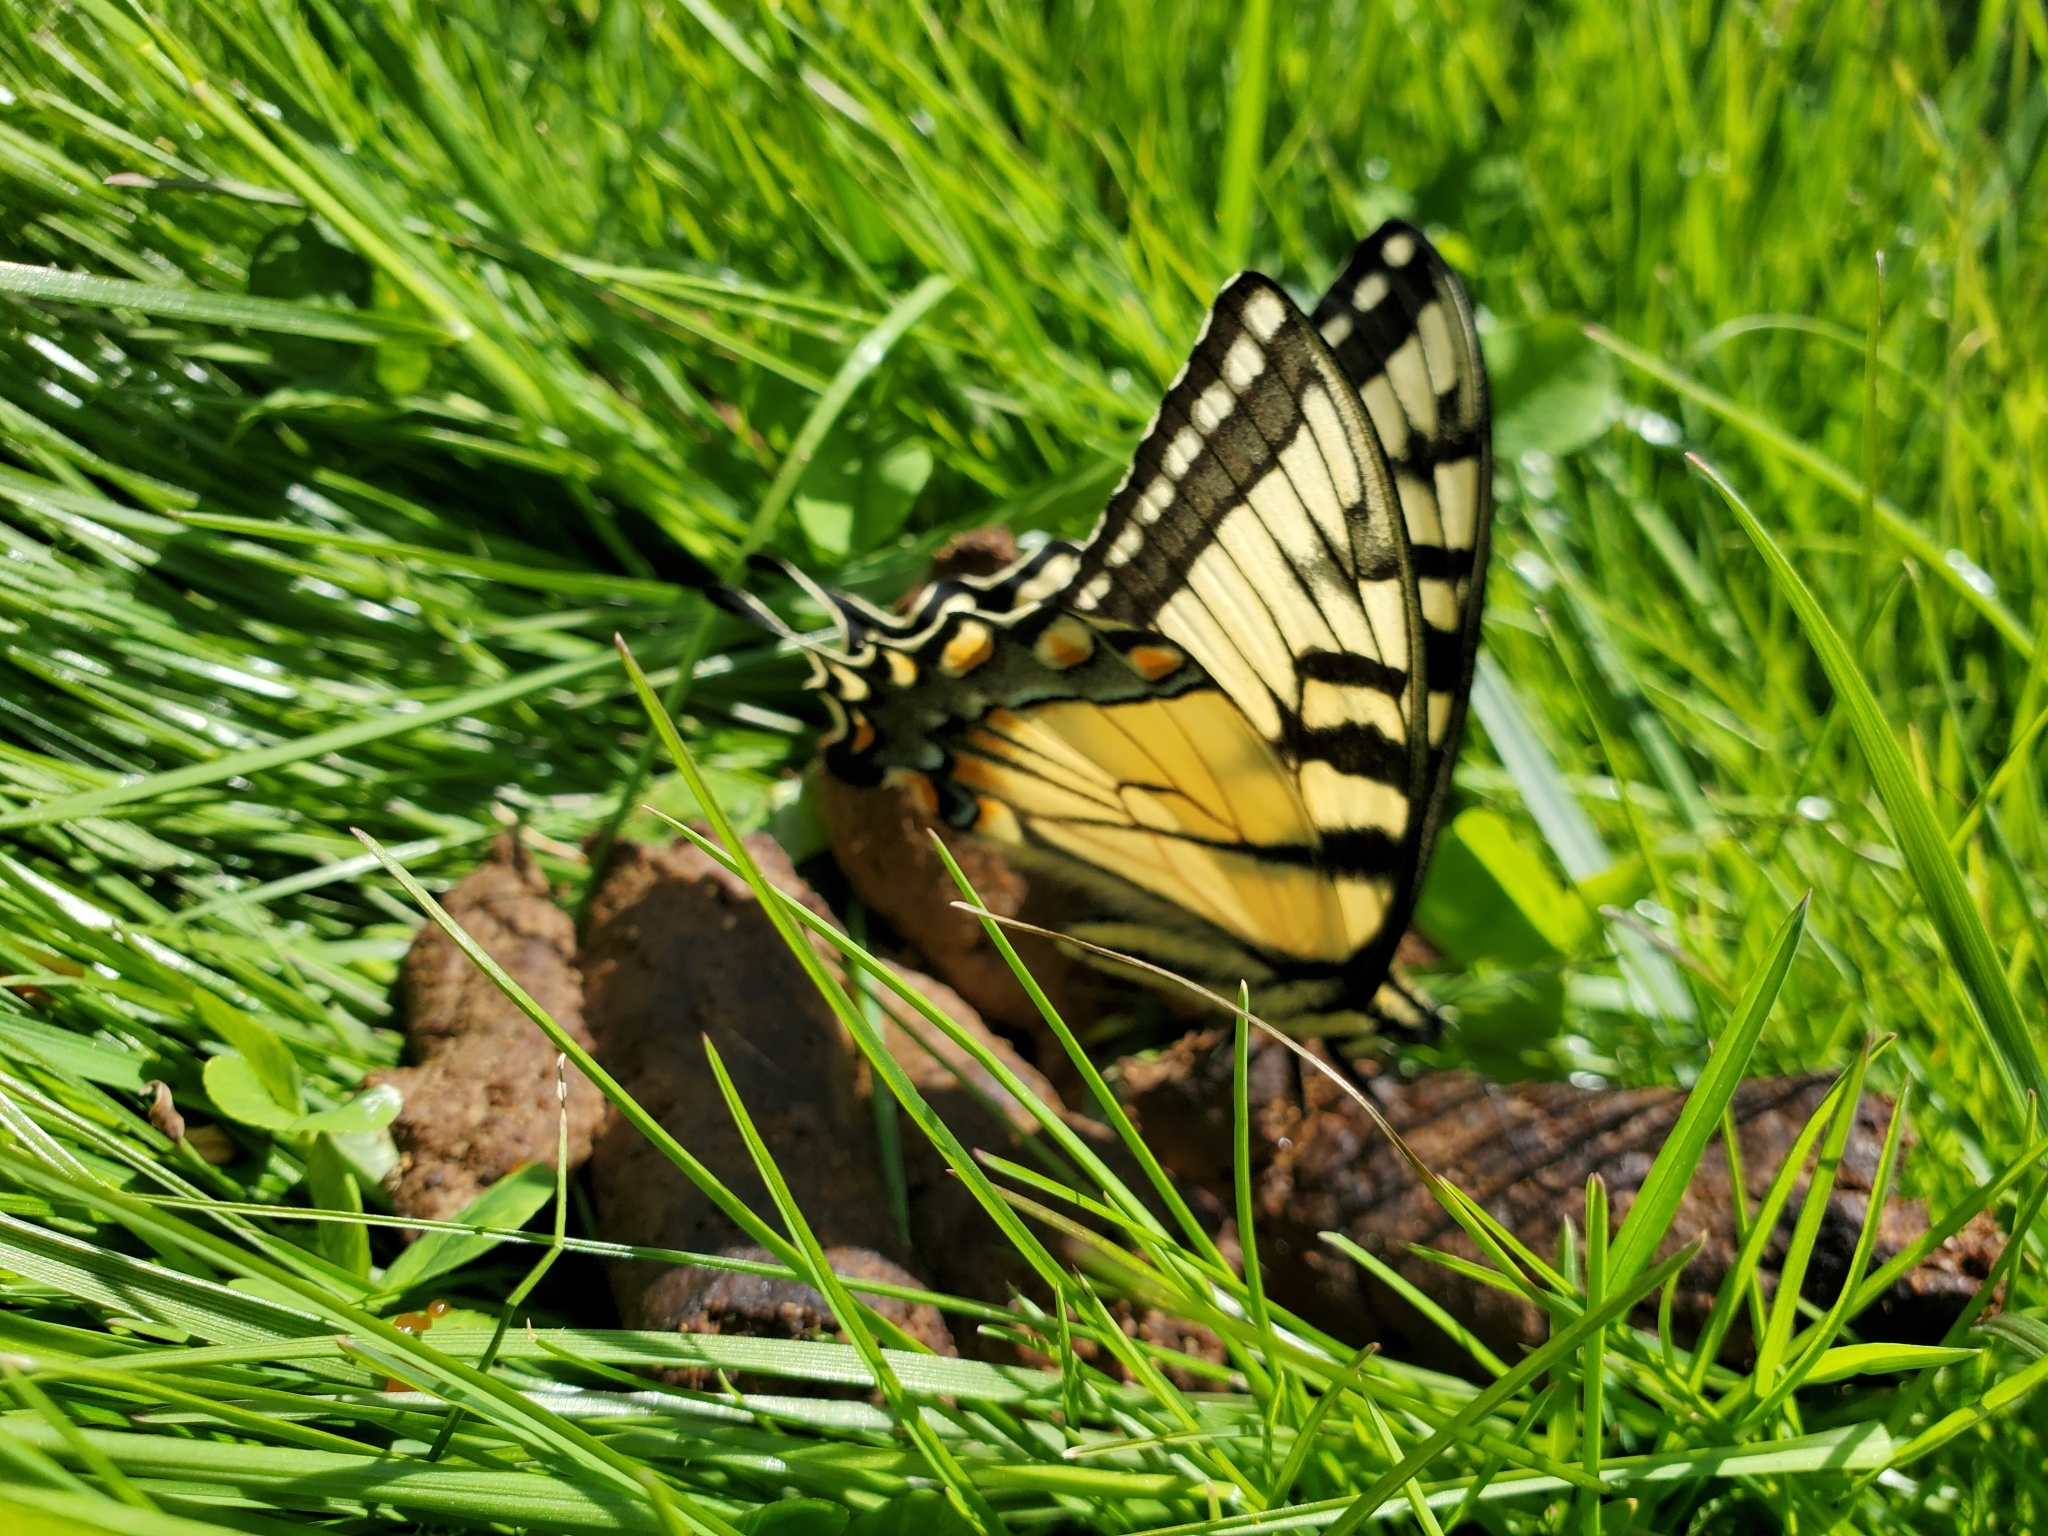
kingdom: Animalia
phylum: Arthropoda
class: Insecta
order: Lepidoptera
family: Papilionidae
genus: Papilio
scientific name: Papilio glaucus
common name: Tiger swallowtail
